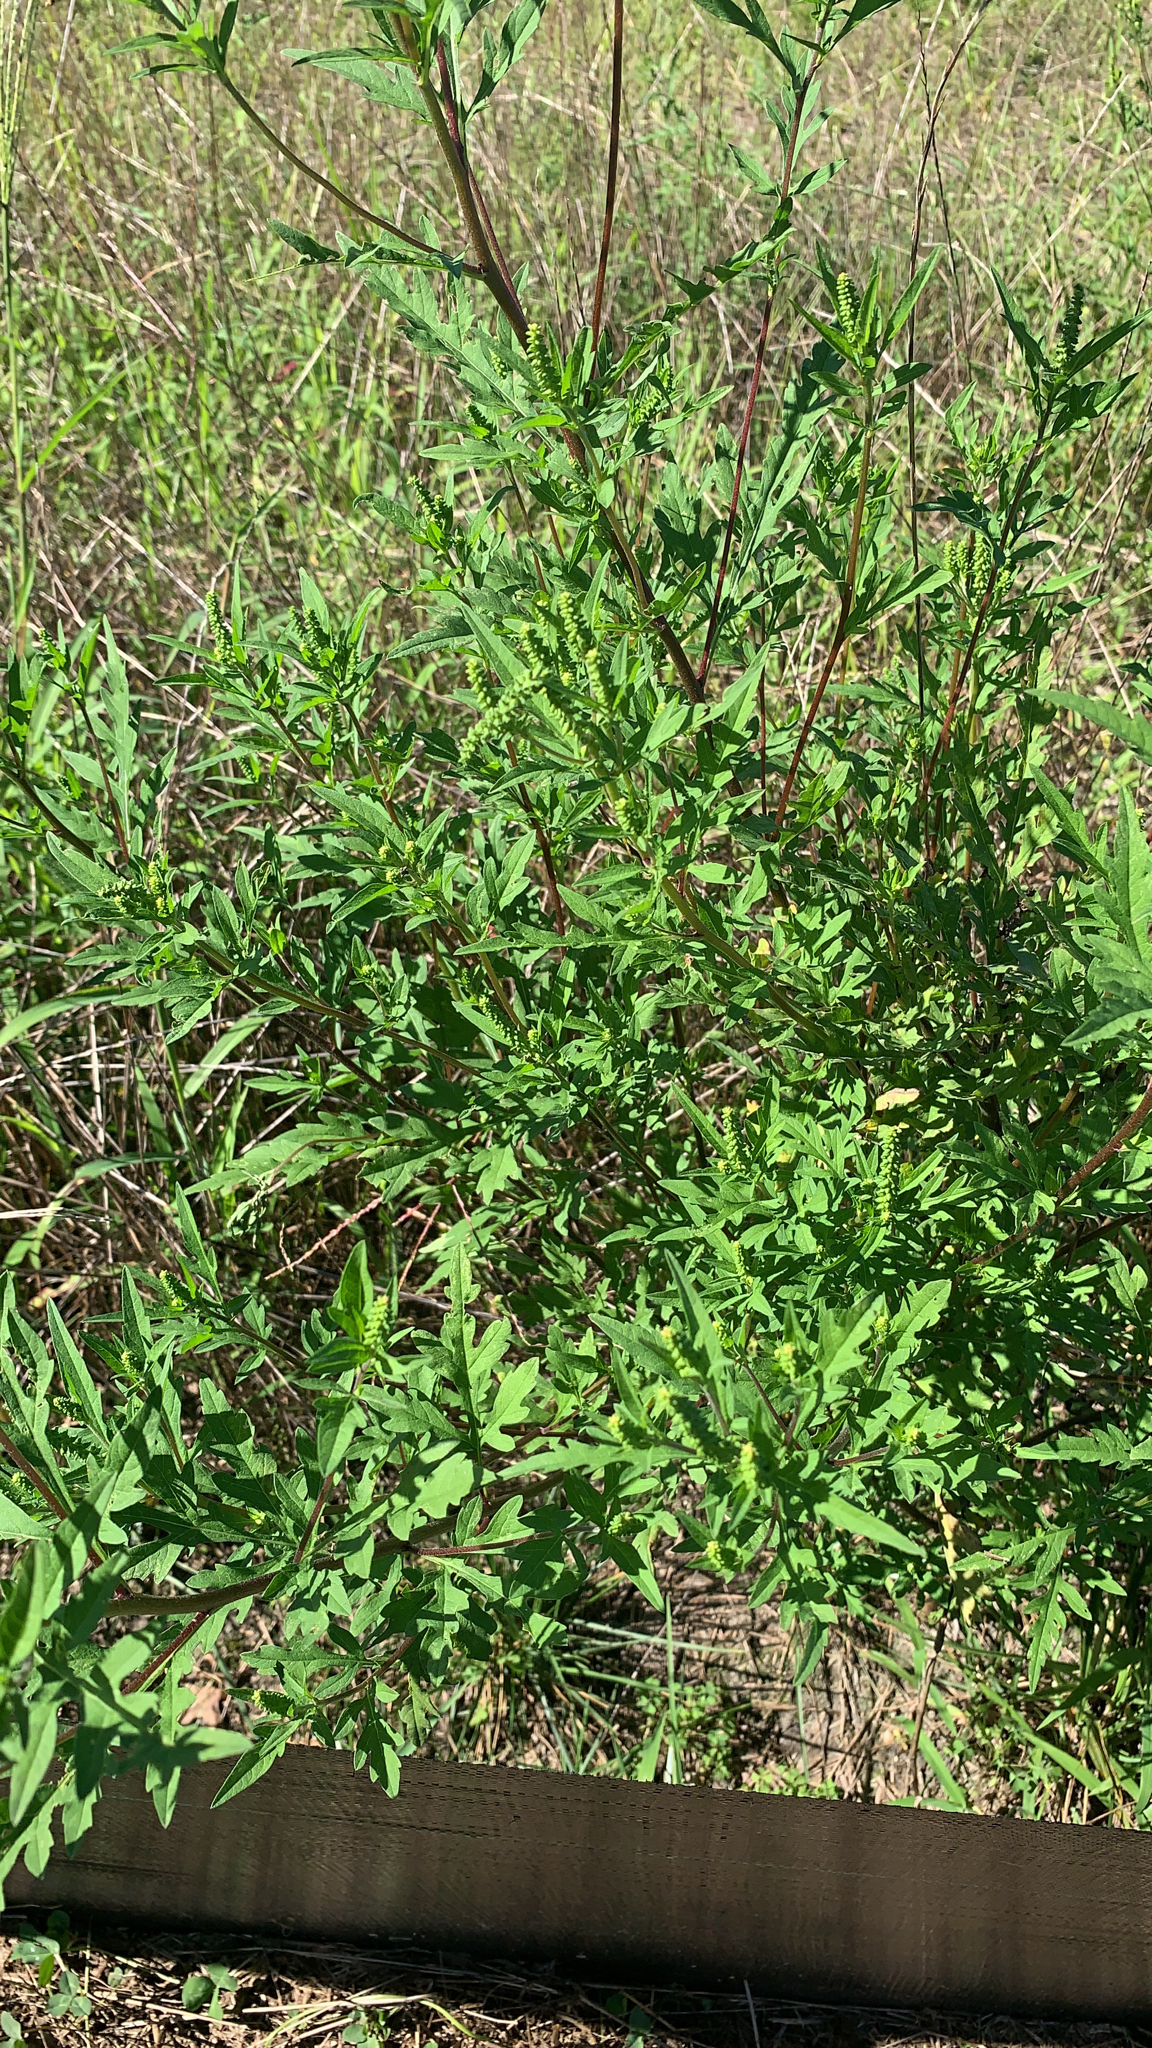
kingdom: Plantae
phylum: Tracheophyta
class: Magnoliopsida
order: Asterales
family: Asteraceae
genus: Ambrosia
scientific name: Ambrosia artemisiifolia
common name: Annual ragweed
